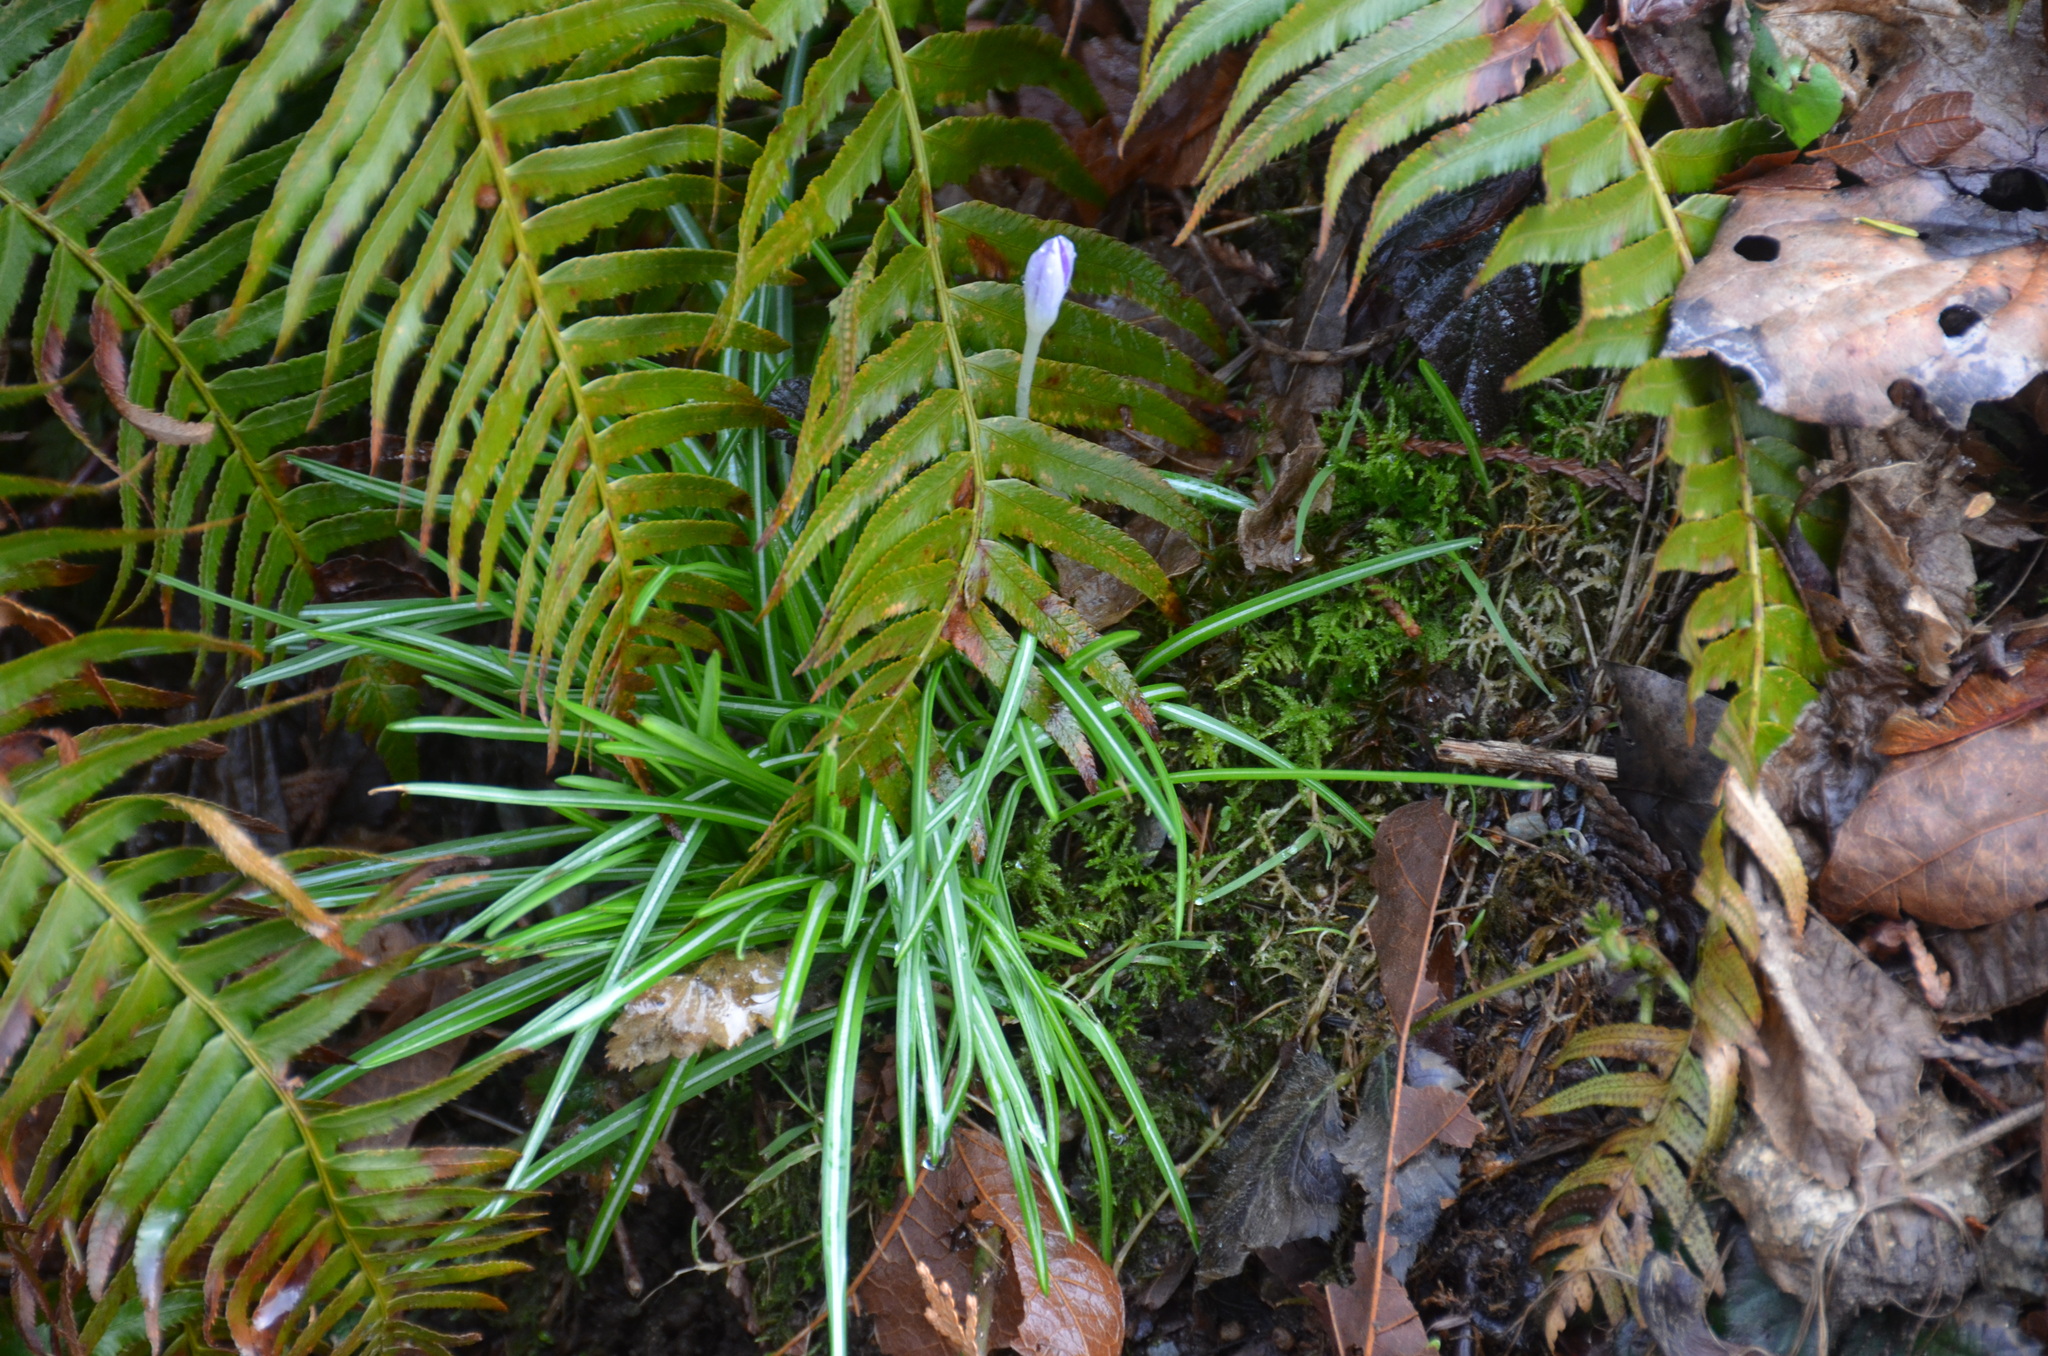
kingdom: Plantae
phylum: Tracheophyta
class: Polypodiopsida
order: Polypodiales
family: Dryopteridaceae
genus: Polystichum
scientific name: Polystichum munitum
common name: Western sword-fern
